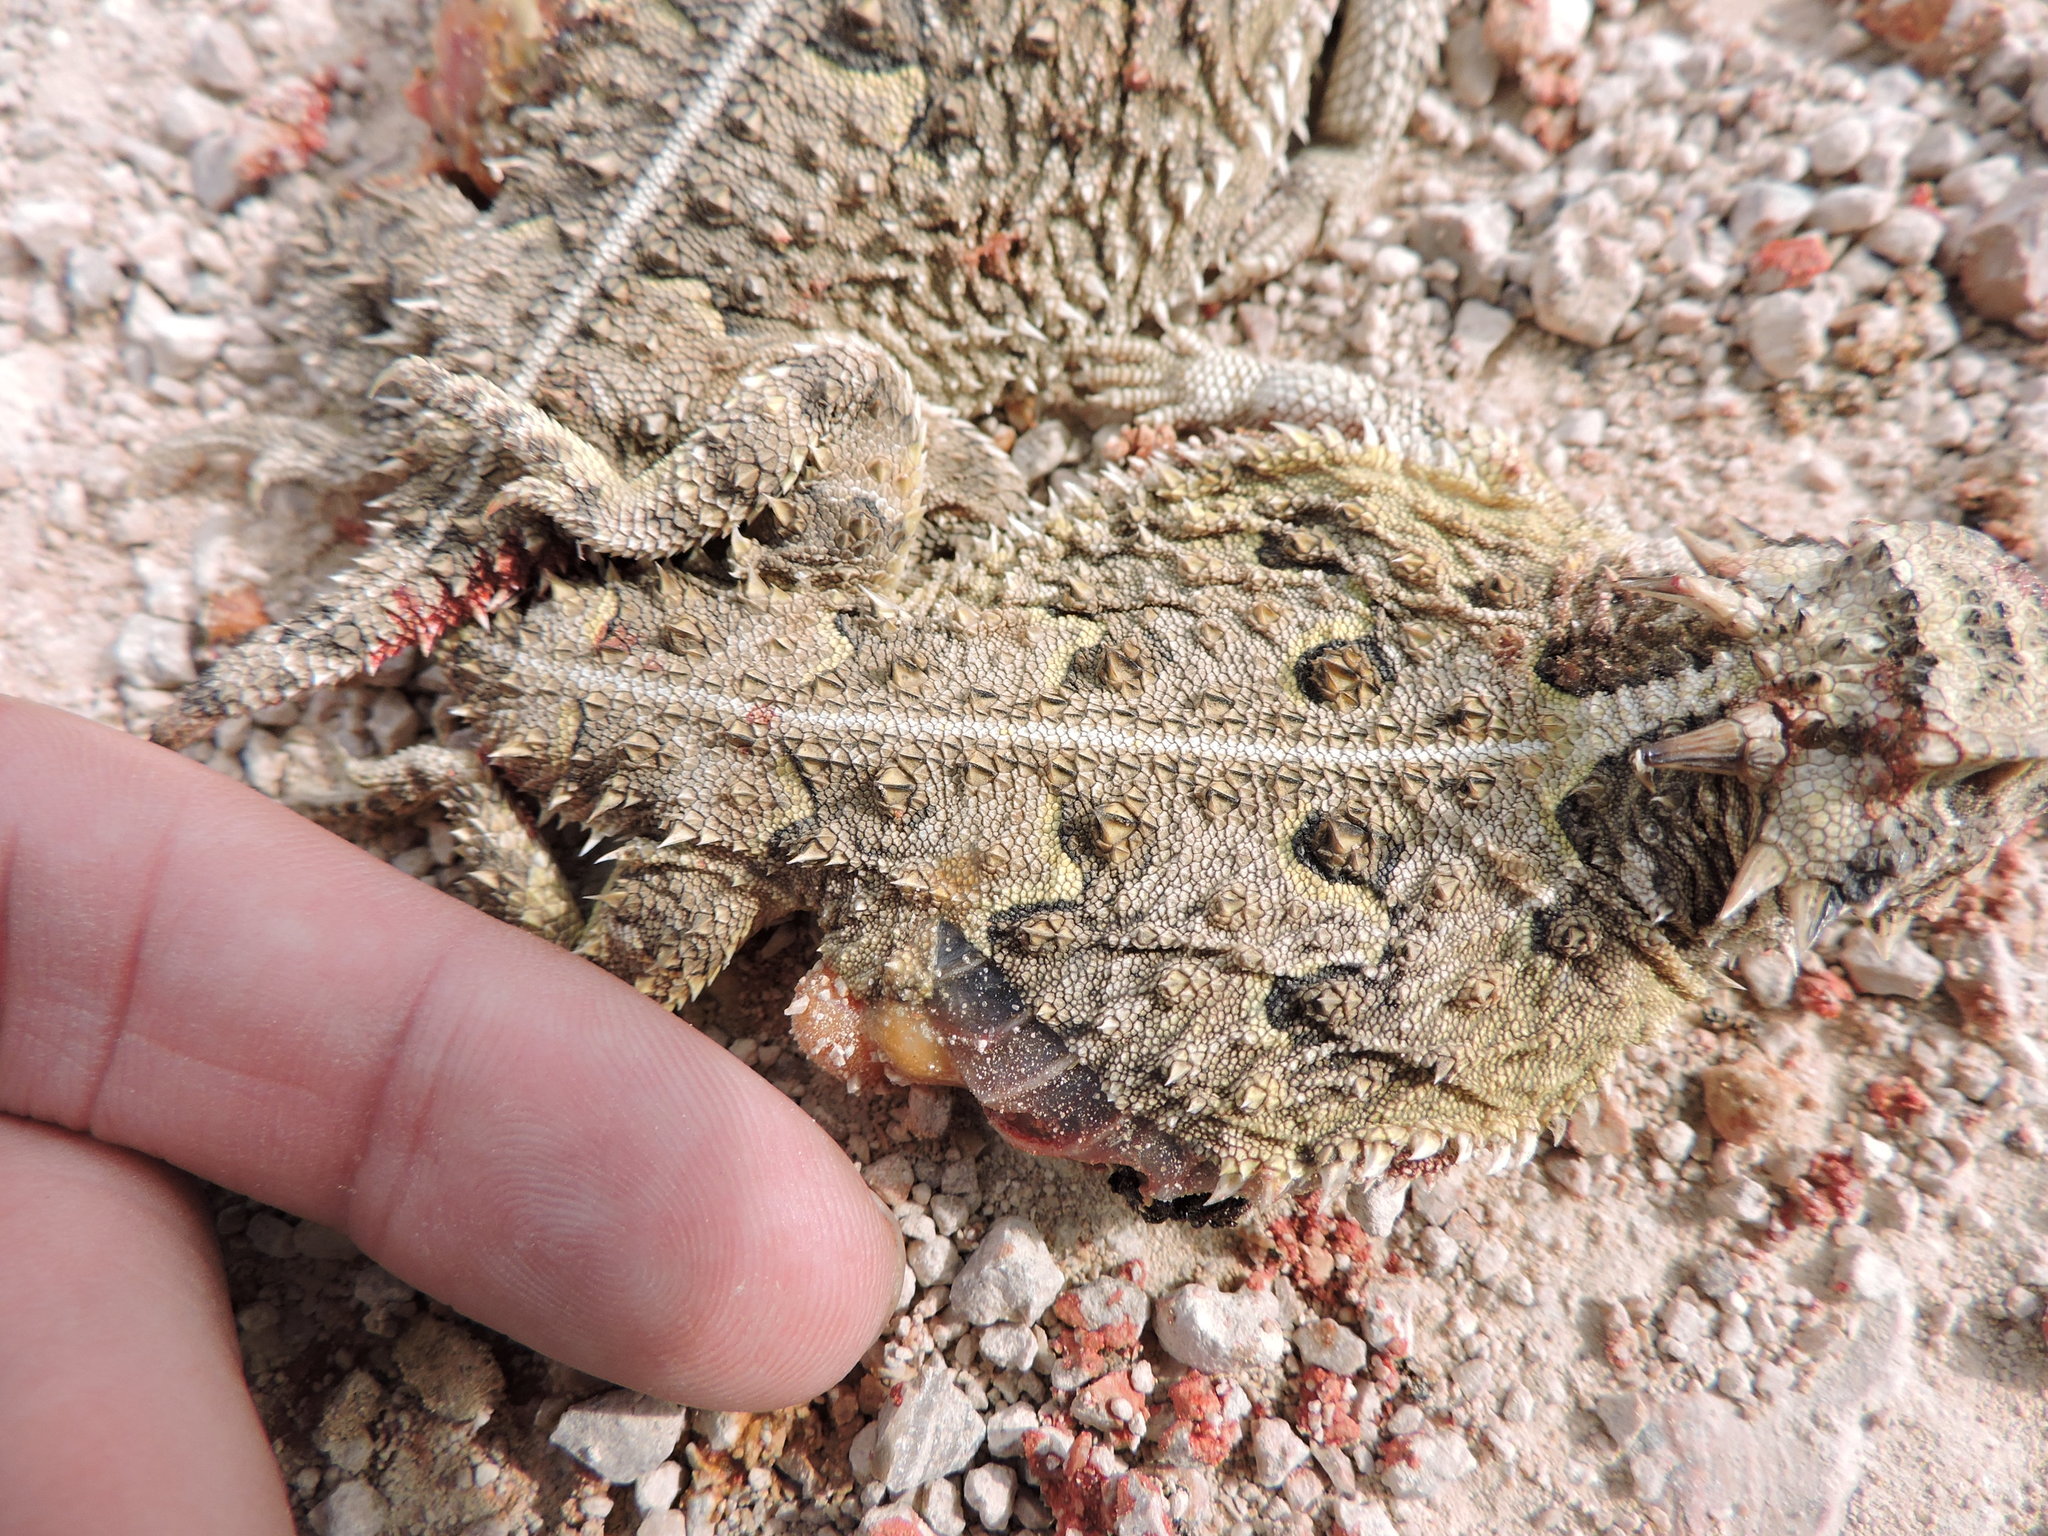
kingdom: Animalia
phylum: Chordata
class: Squamata
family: Phrynosomatidae
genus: Phrynosoma
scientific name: Phrynosoma cornutum
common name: Texas horned lizard
